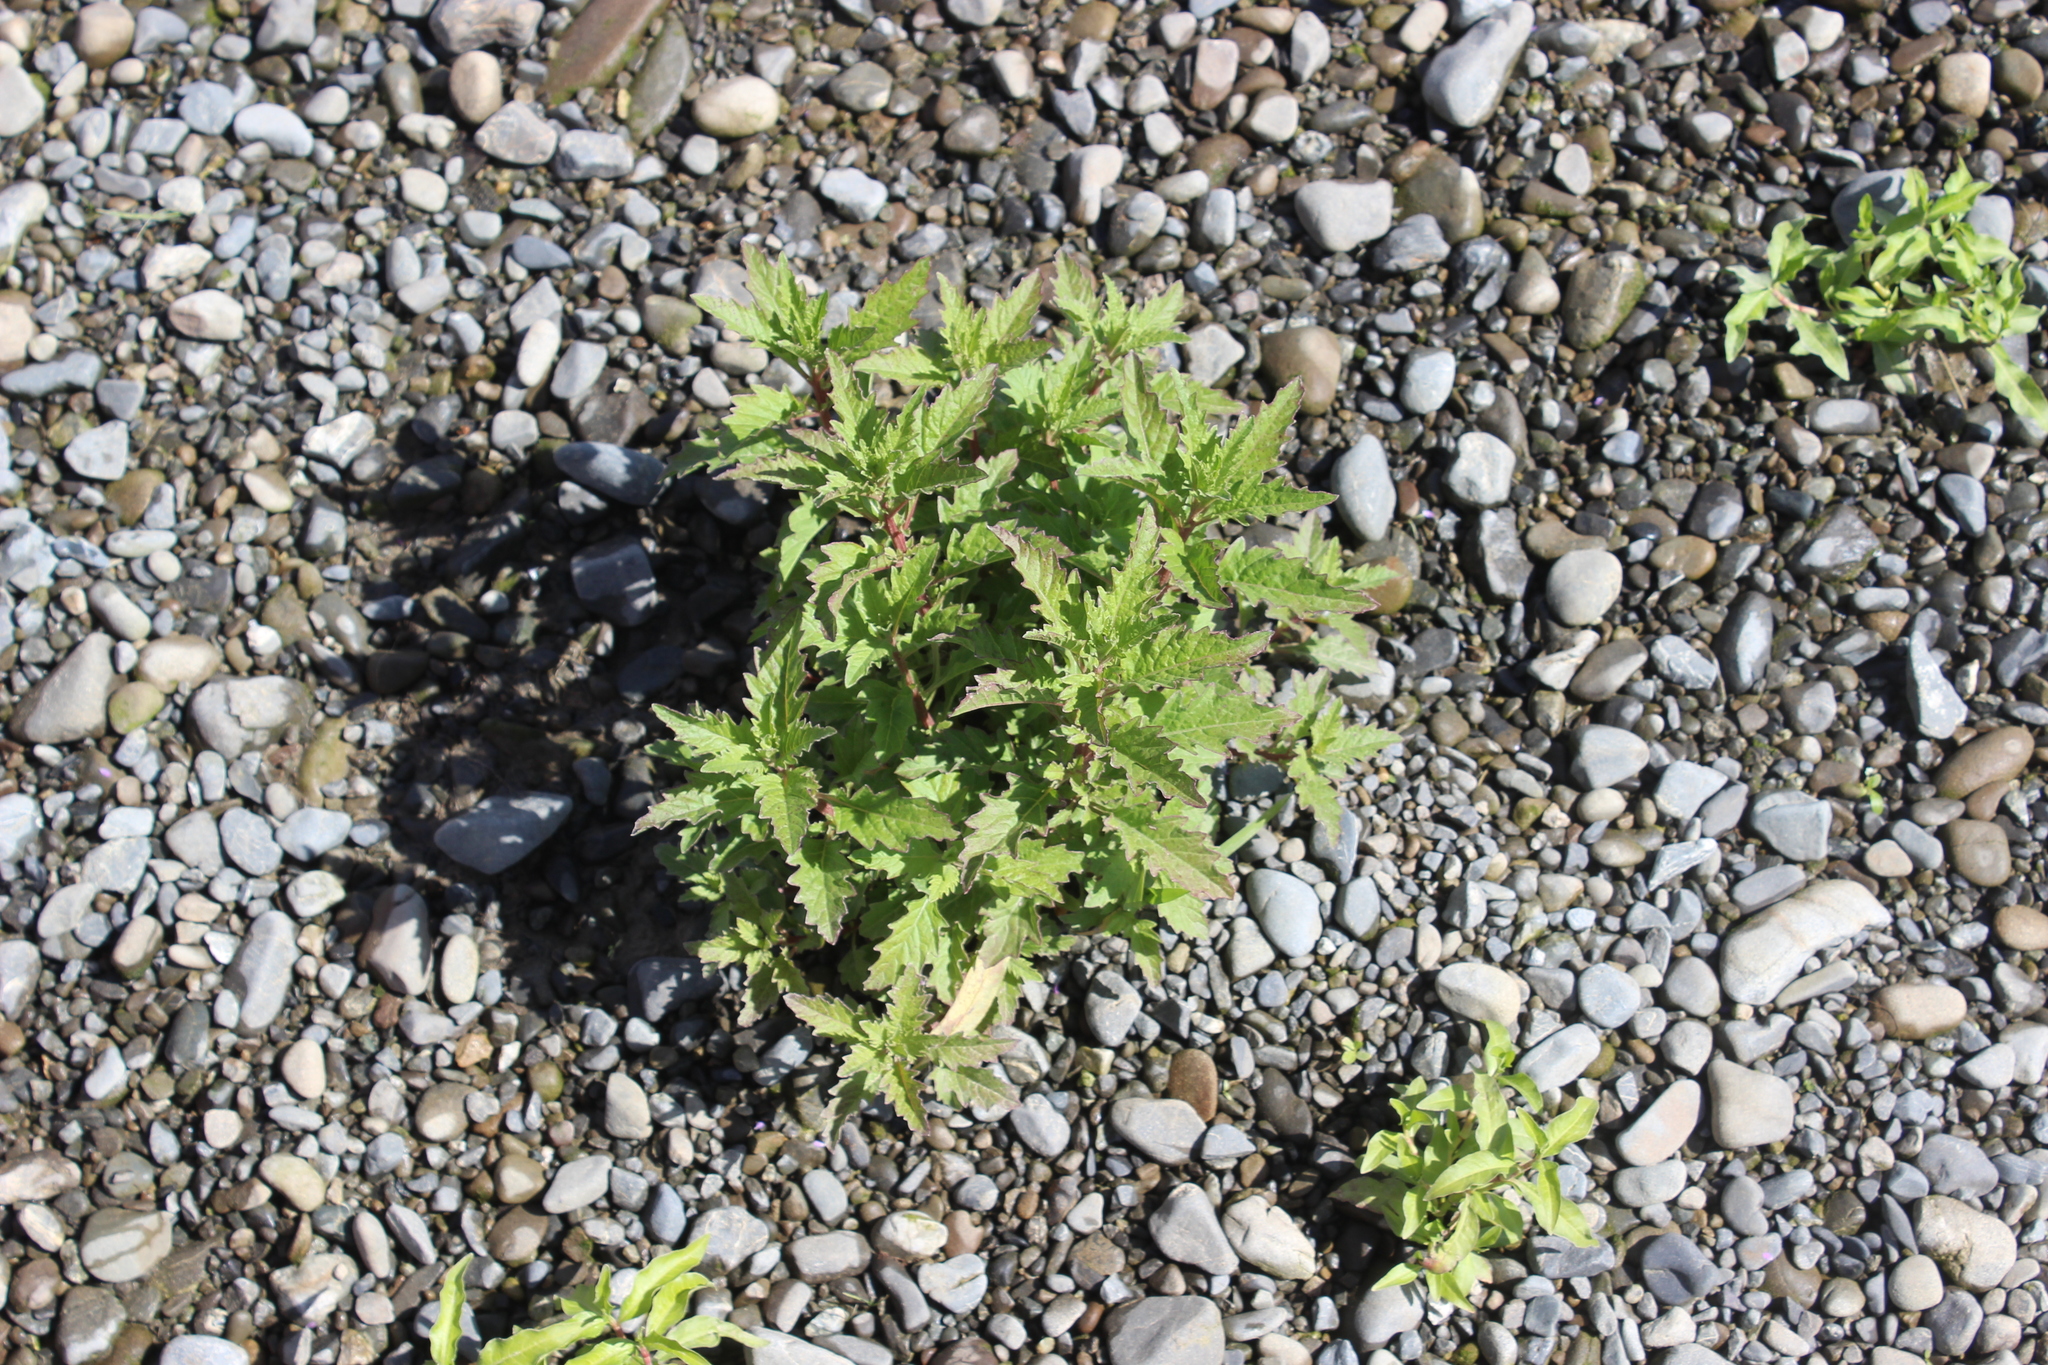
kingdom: Plantae
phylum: Tracheophyta
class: Magnoliopsida
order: Lamiales
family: Lamiaceae
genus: Lycopus
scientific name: Lycopus europaeus
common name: European bugleweed
